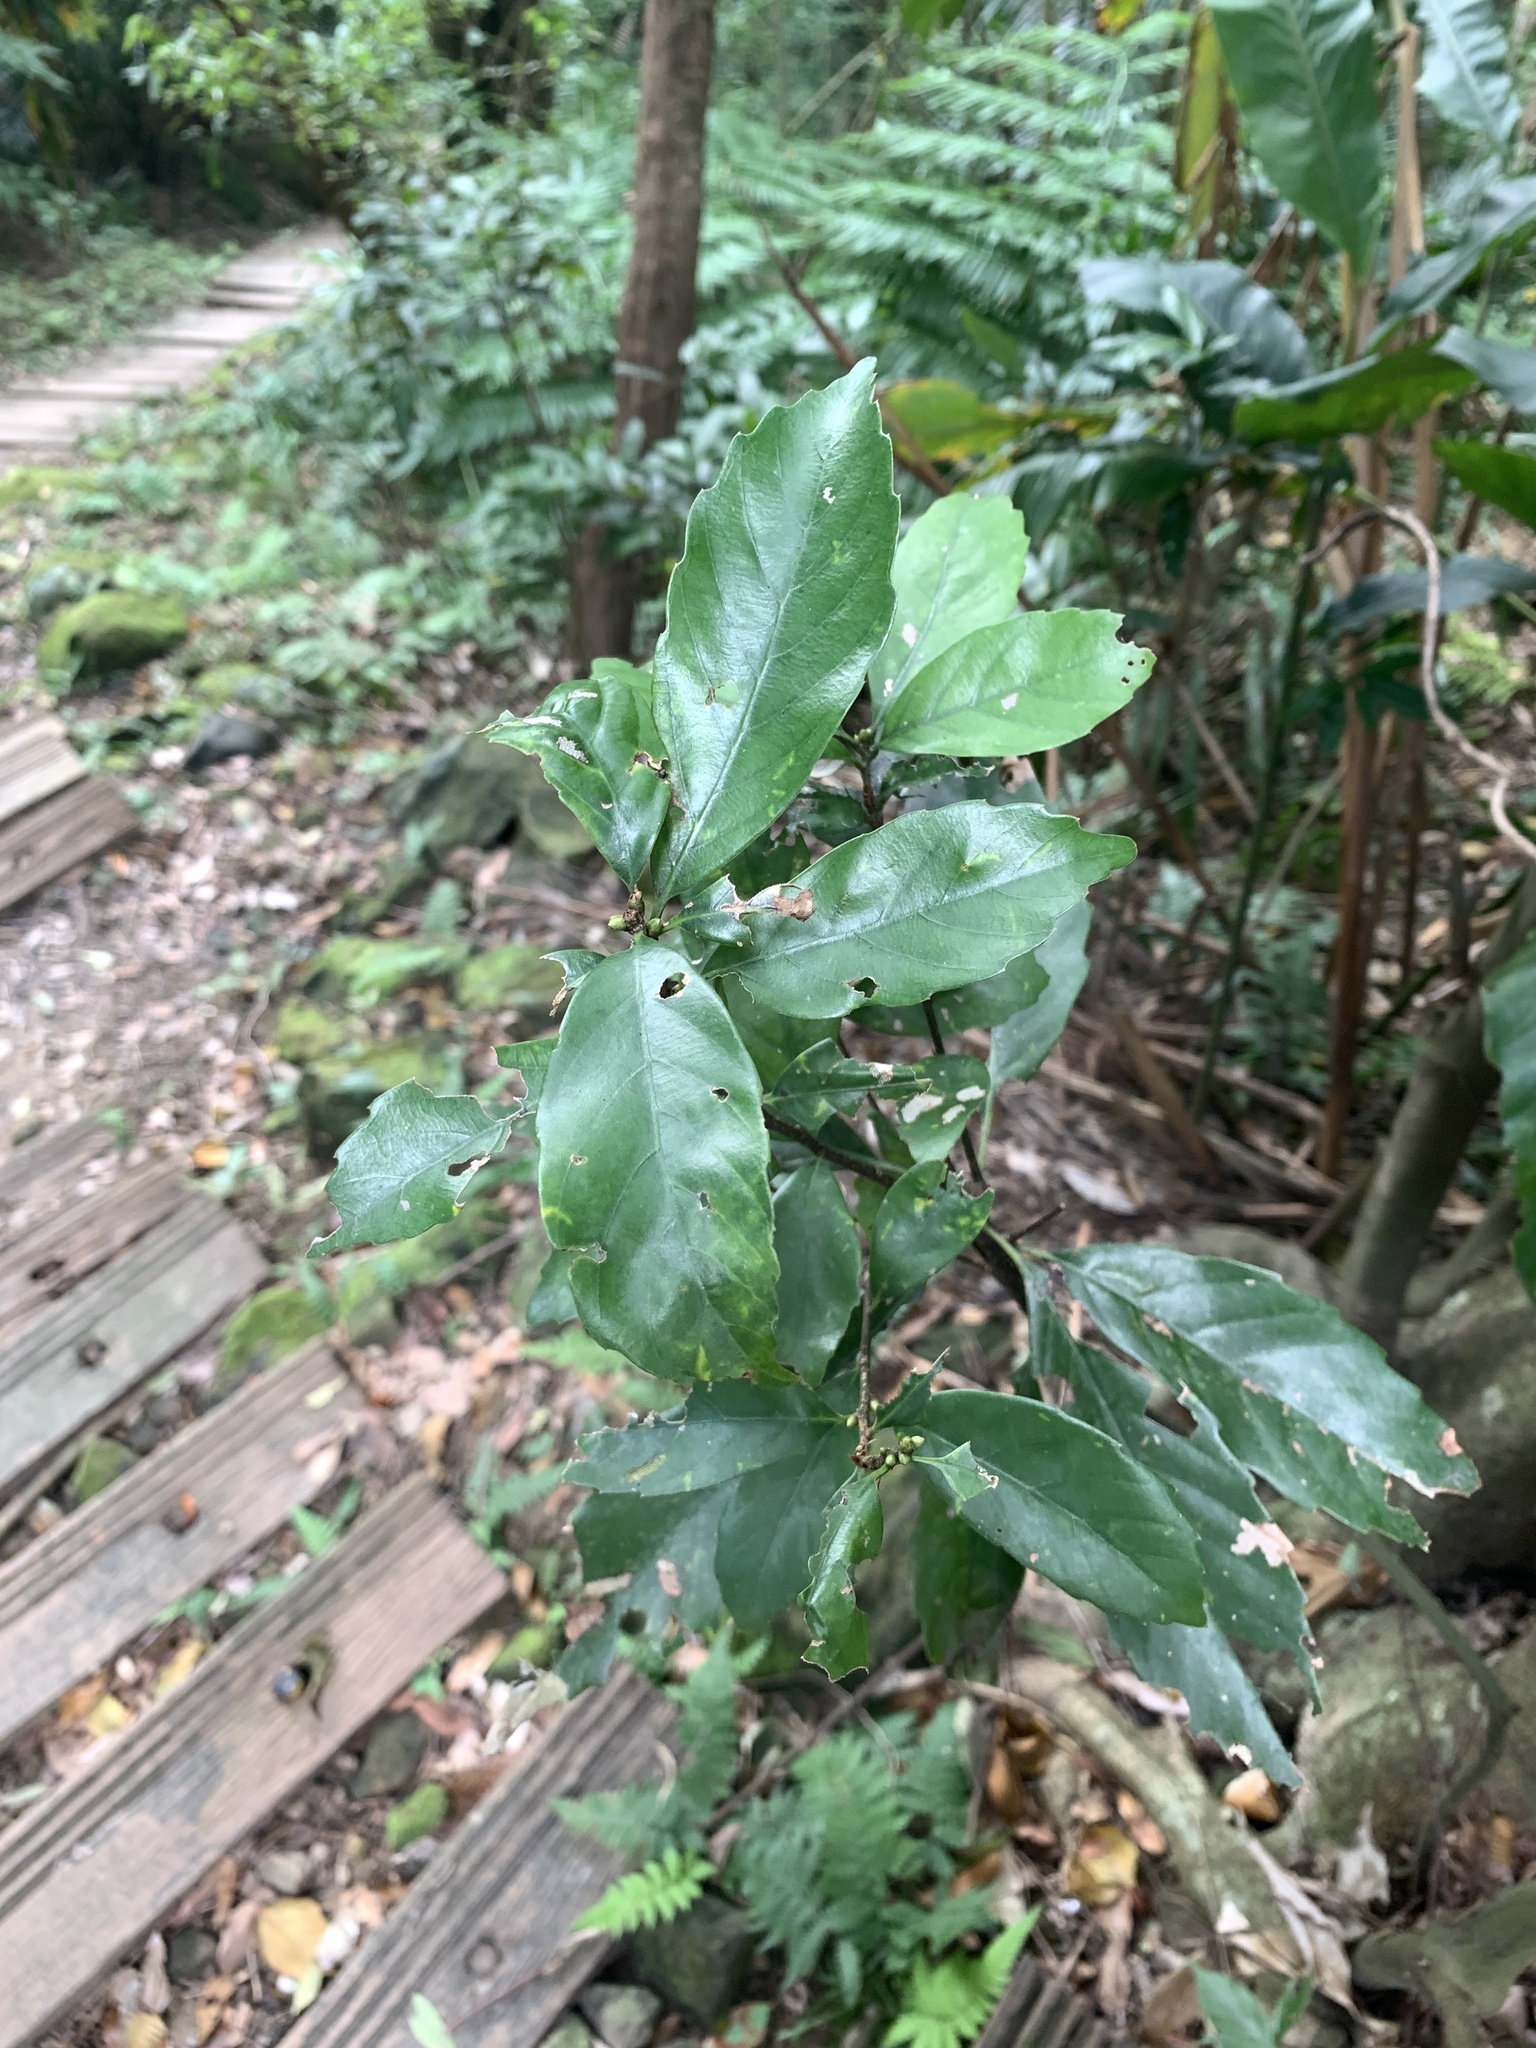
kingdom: Plantae
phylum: Tracheophyta
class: Magnoliopsida
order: Fagales
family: Fagaceae
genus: Quercus
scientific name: Quercus glauca
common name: Ring-cup oak
